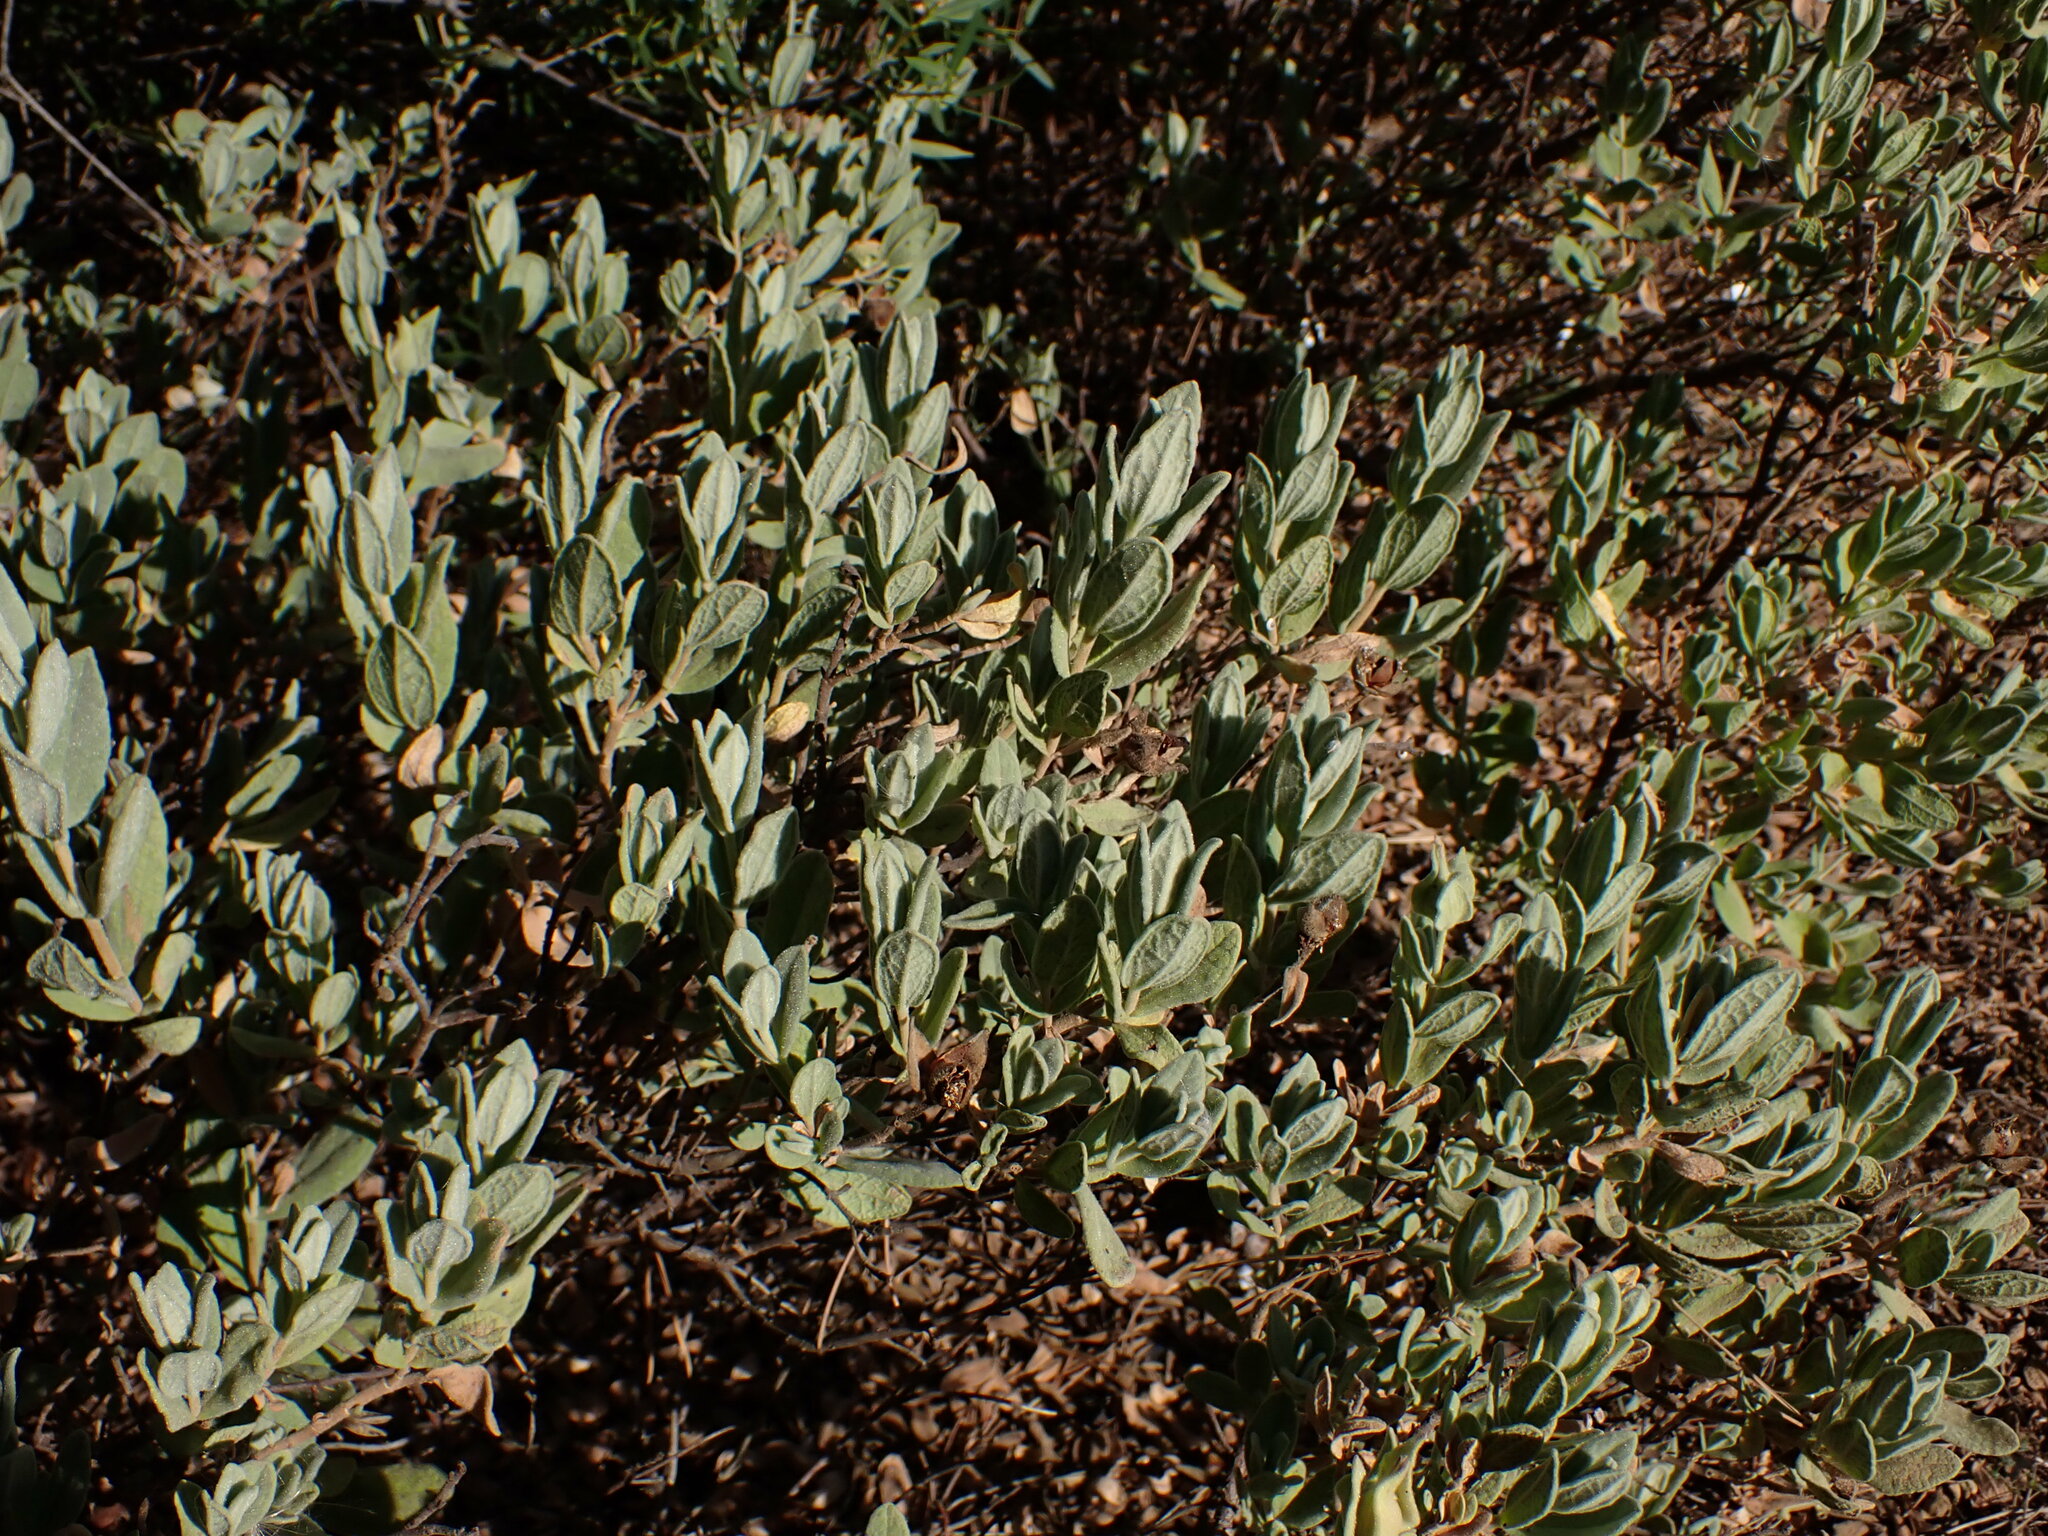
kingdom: Plantae
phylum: Tracheophyta
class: Magnoliopsida
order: Malvales
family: Cistaceae
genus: Cistus
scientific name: Cistus albidus
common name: White-leaf rock-rose
